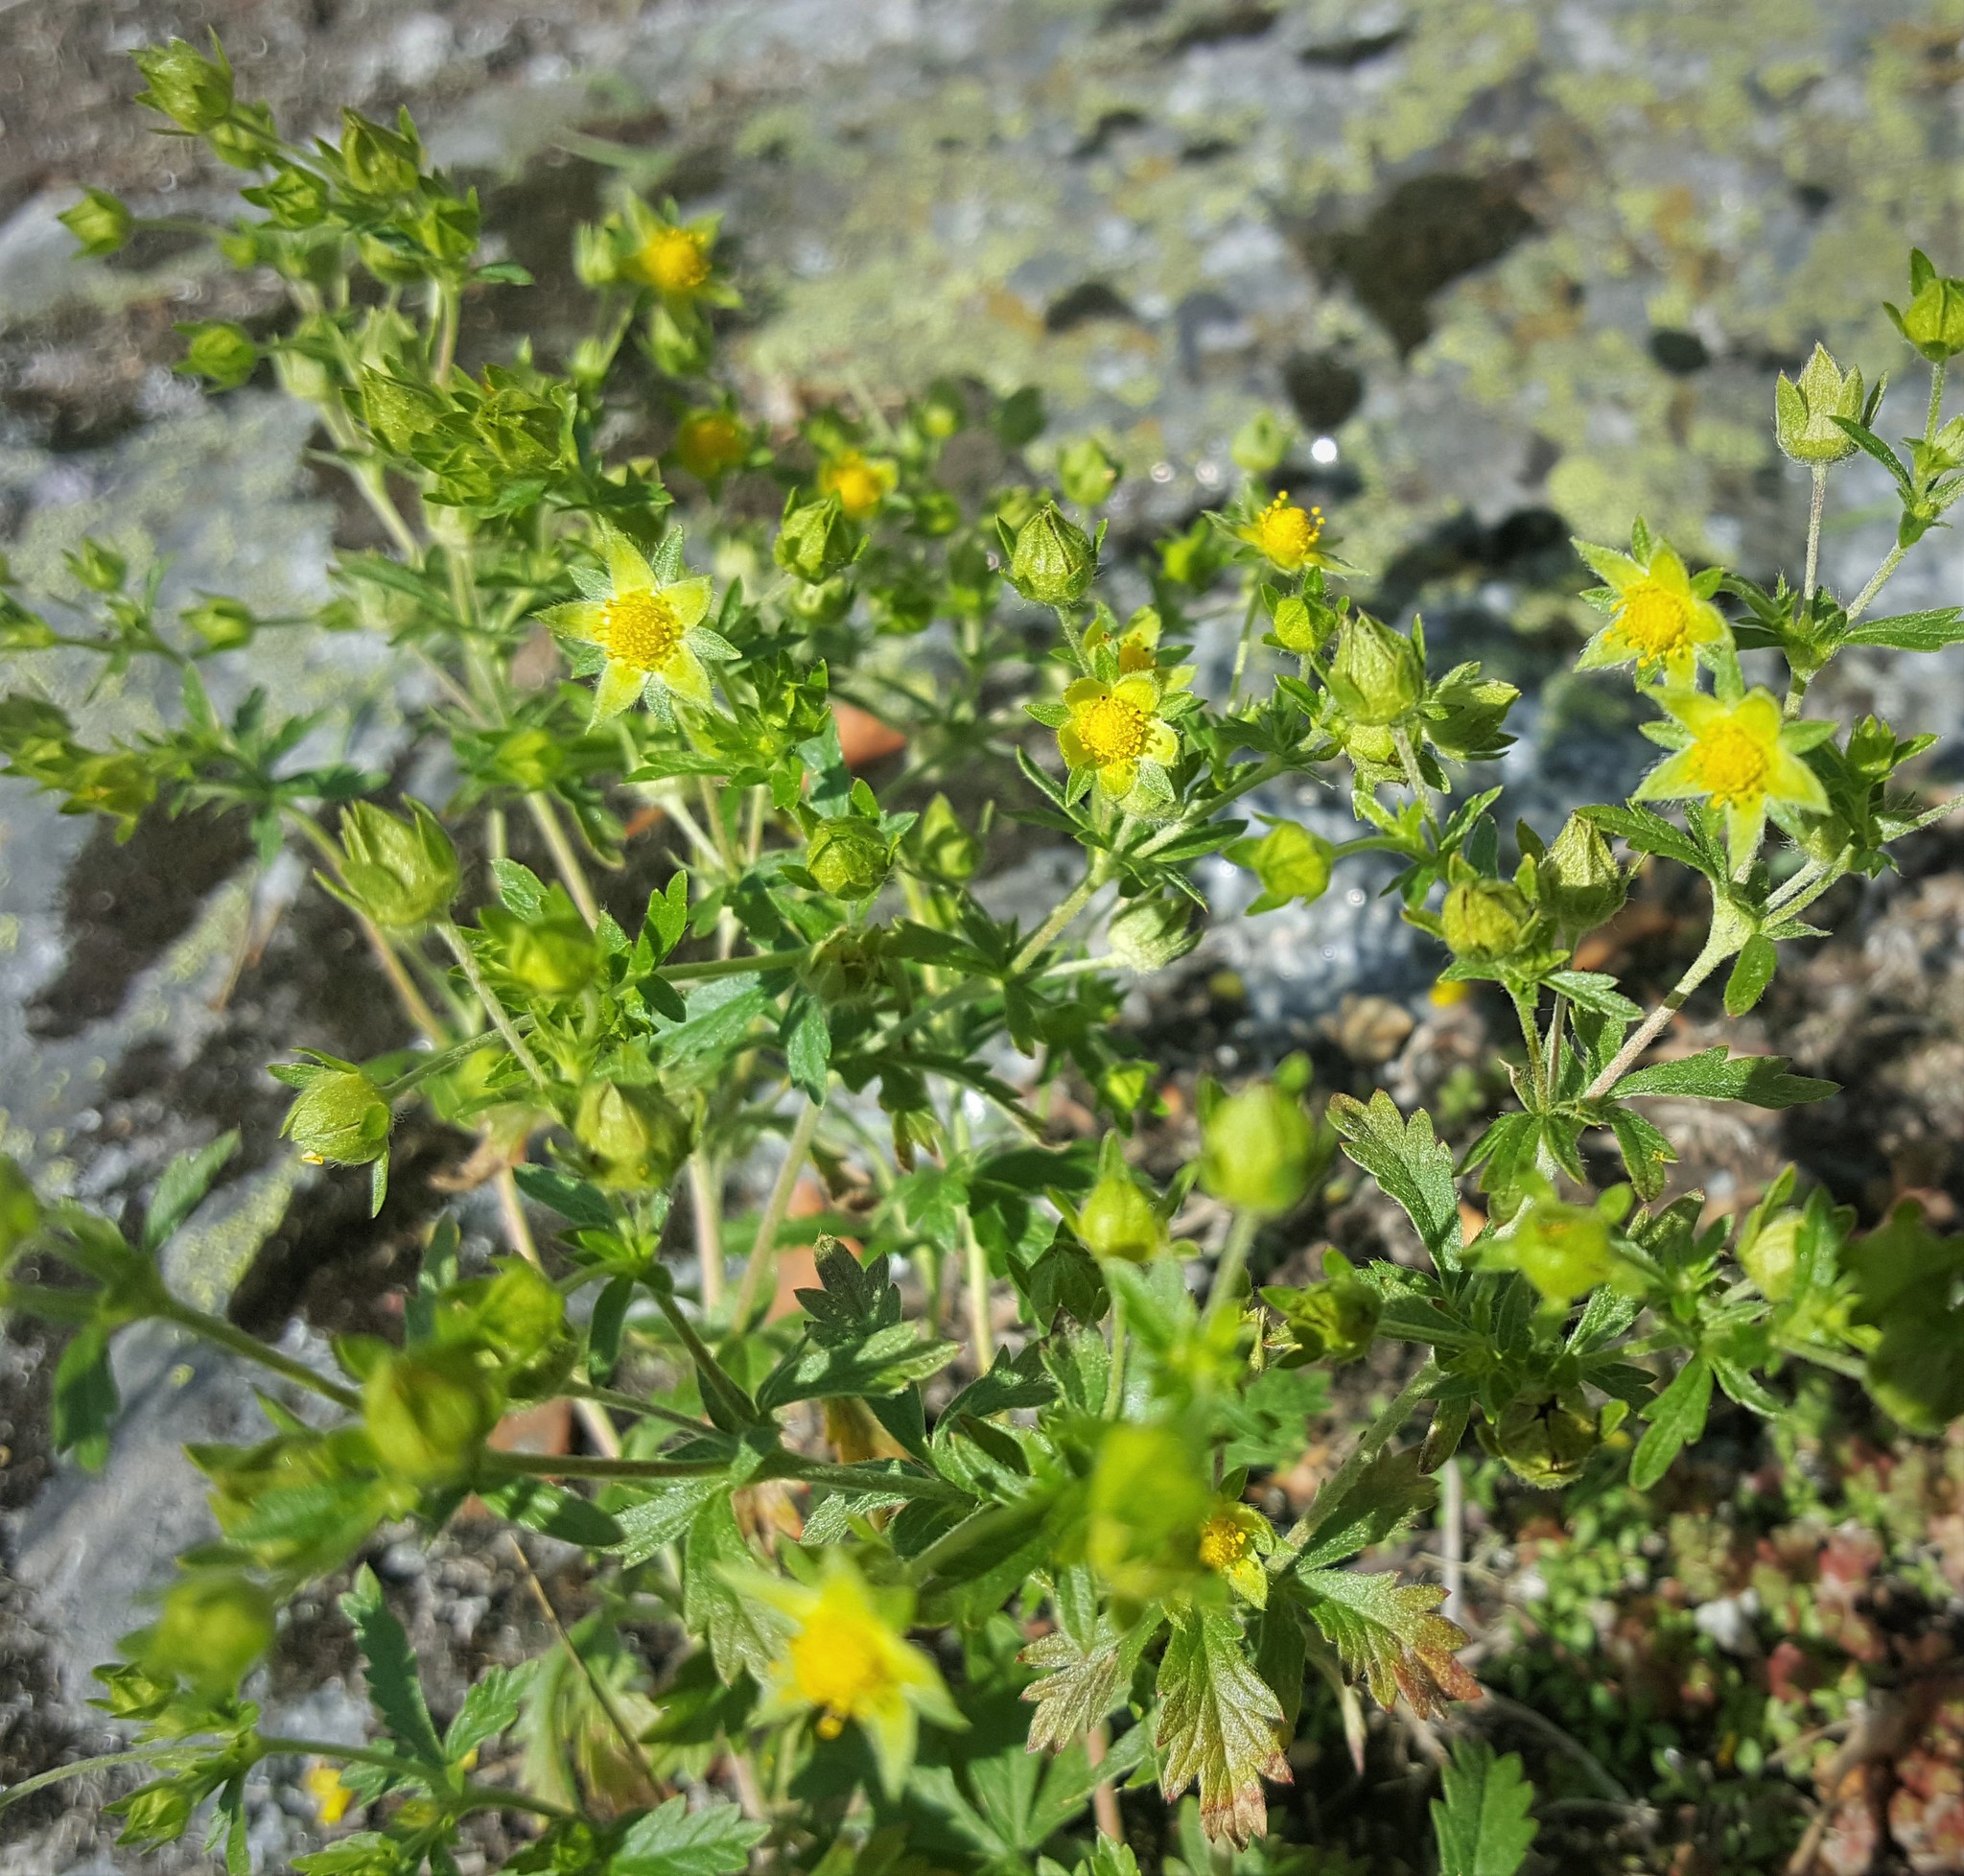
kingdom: Plantae
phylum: Tracheophyta
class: Magnoliopsida
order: Rosales
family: Rosaceae
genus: Potentilla
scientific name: Potentilla norvegica
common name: Ternate-leaved cinquefoil
